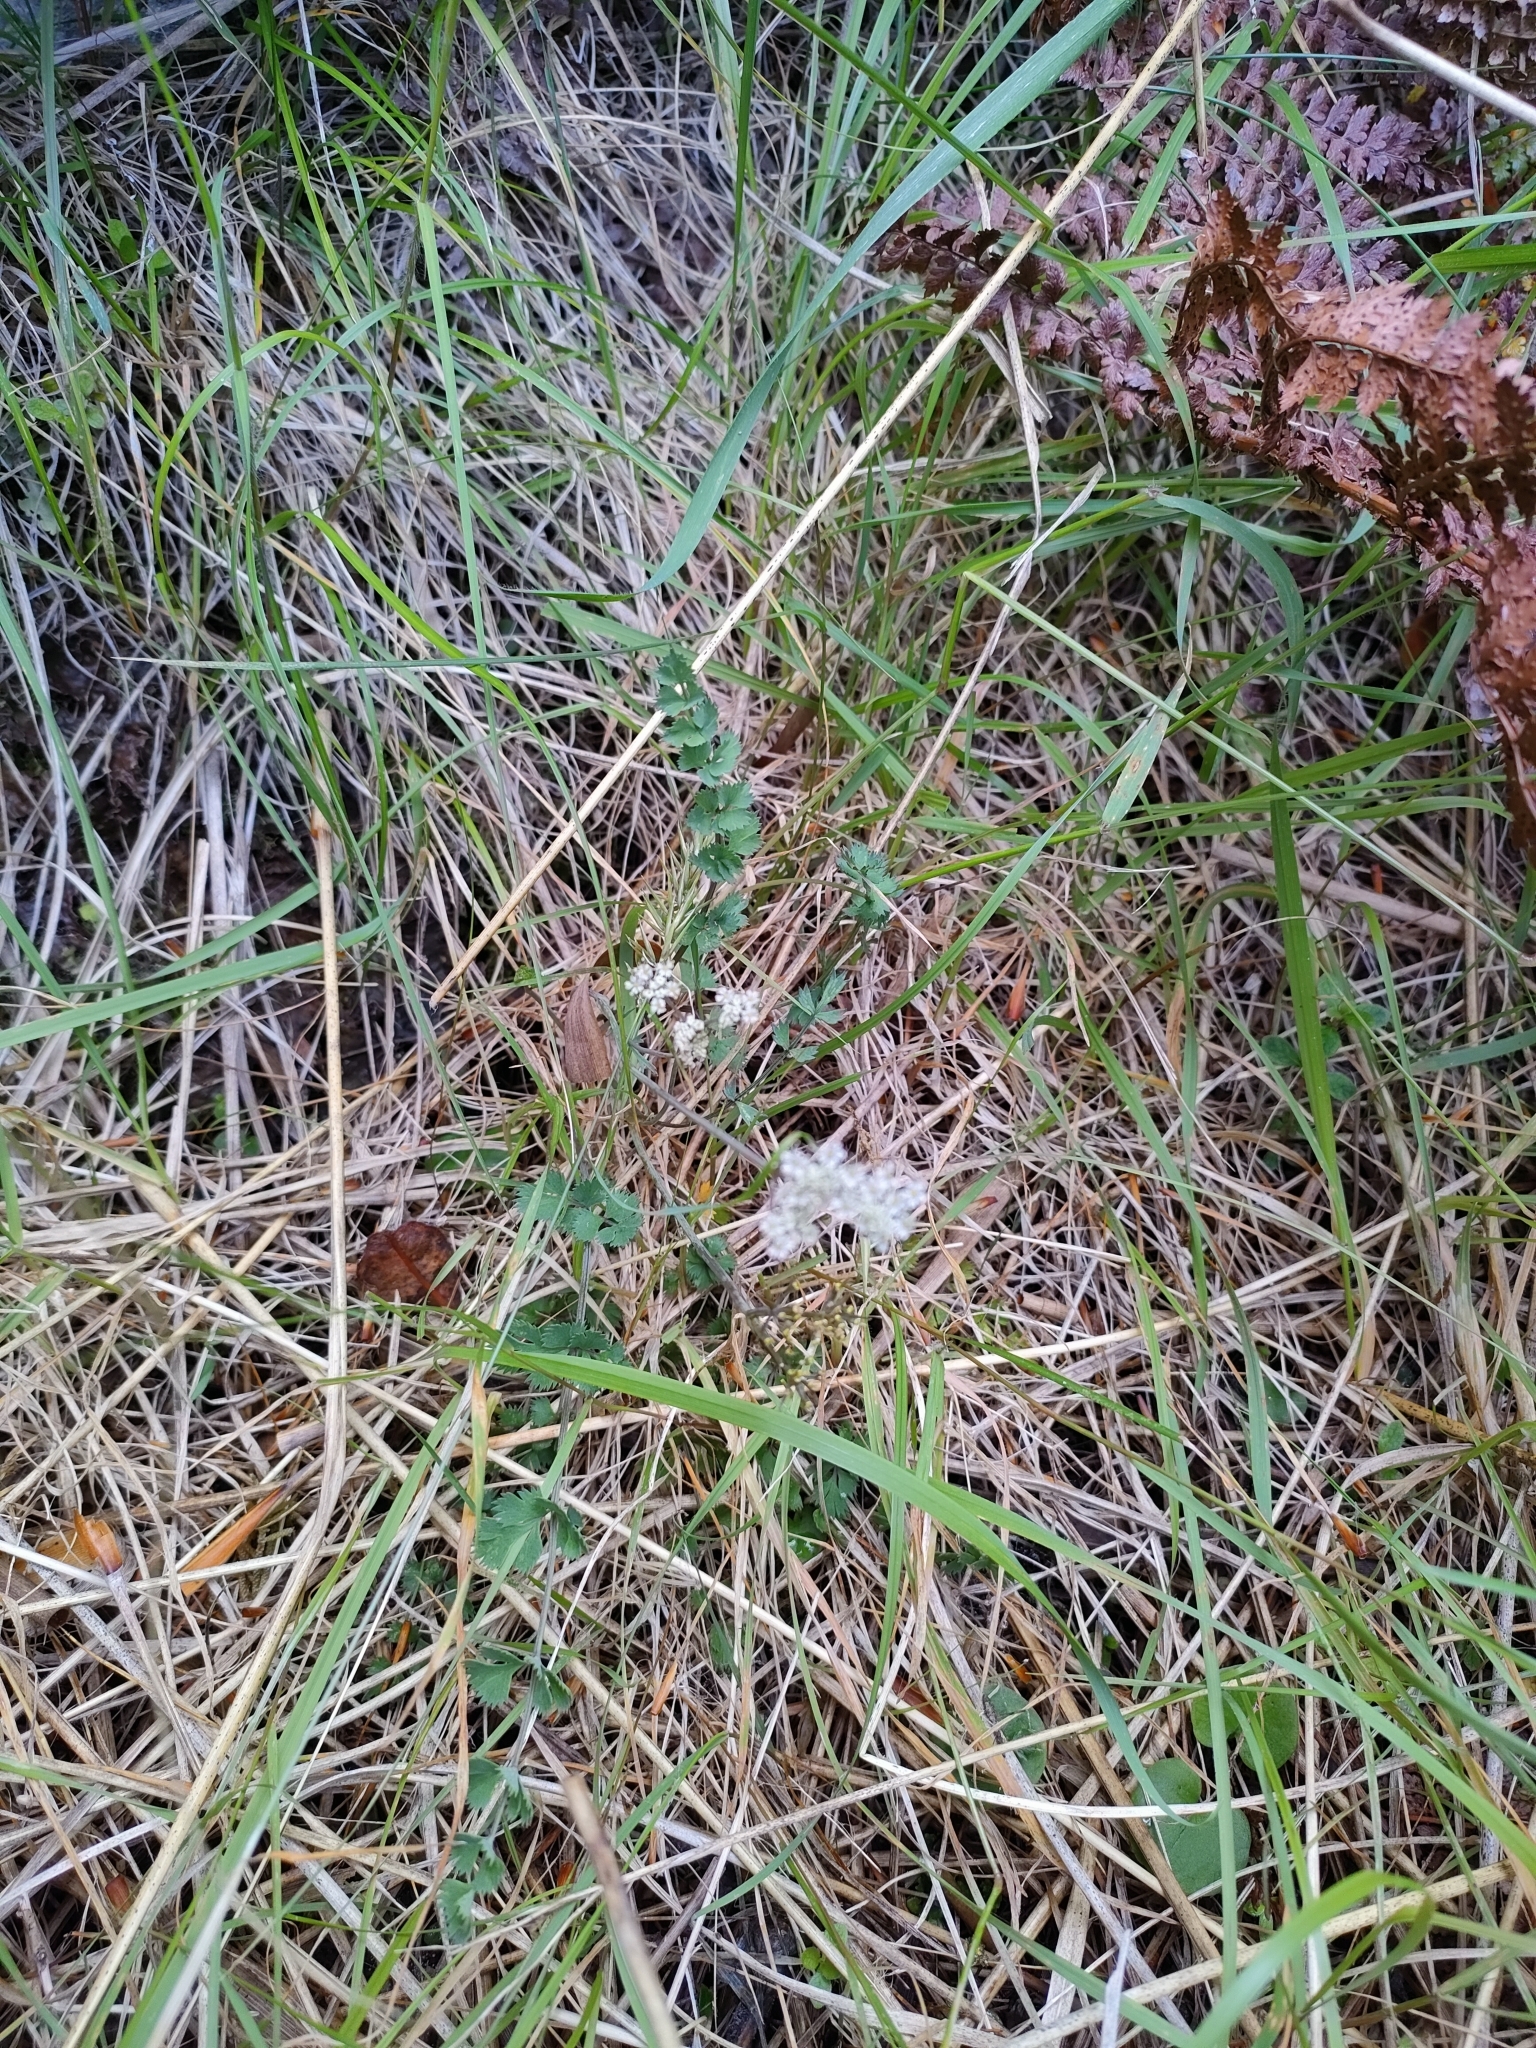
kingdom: Plantae
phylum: Tracheophyta
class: Magnoliopsida
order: Apiales
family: Apiaceae
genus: Gingidia
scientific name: Gingidia enysii
